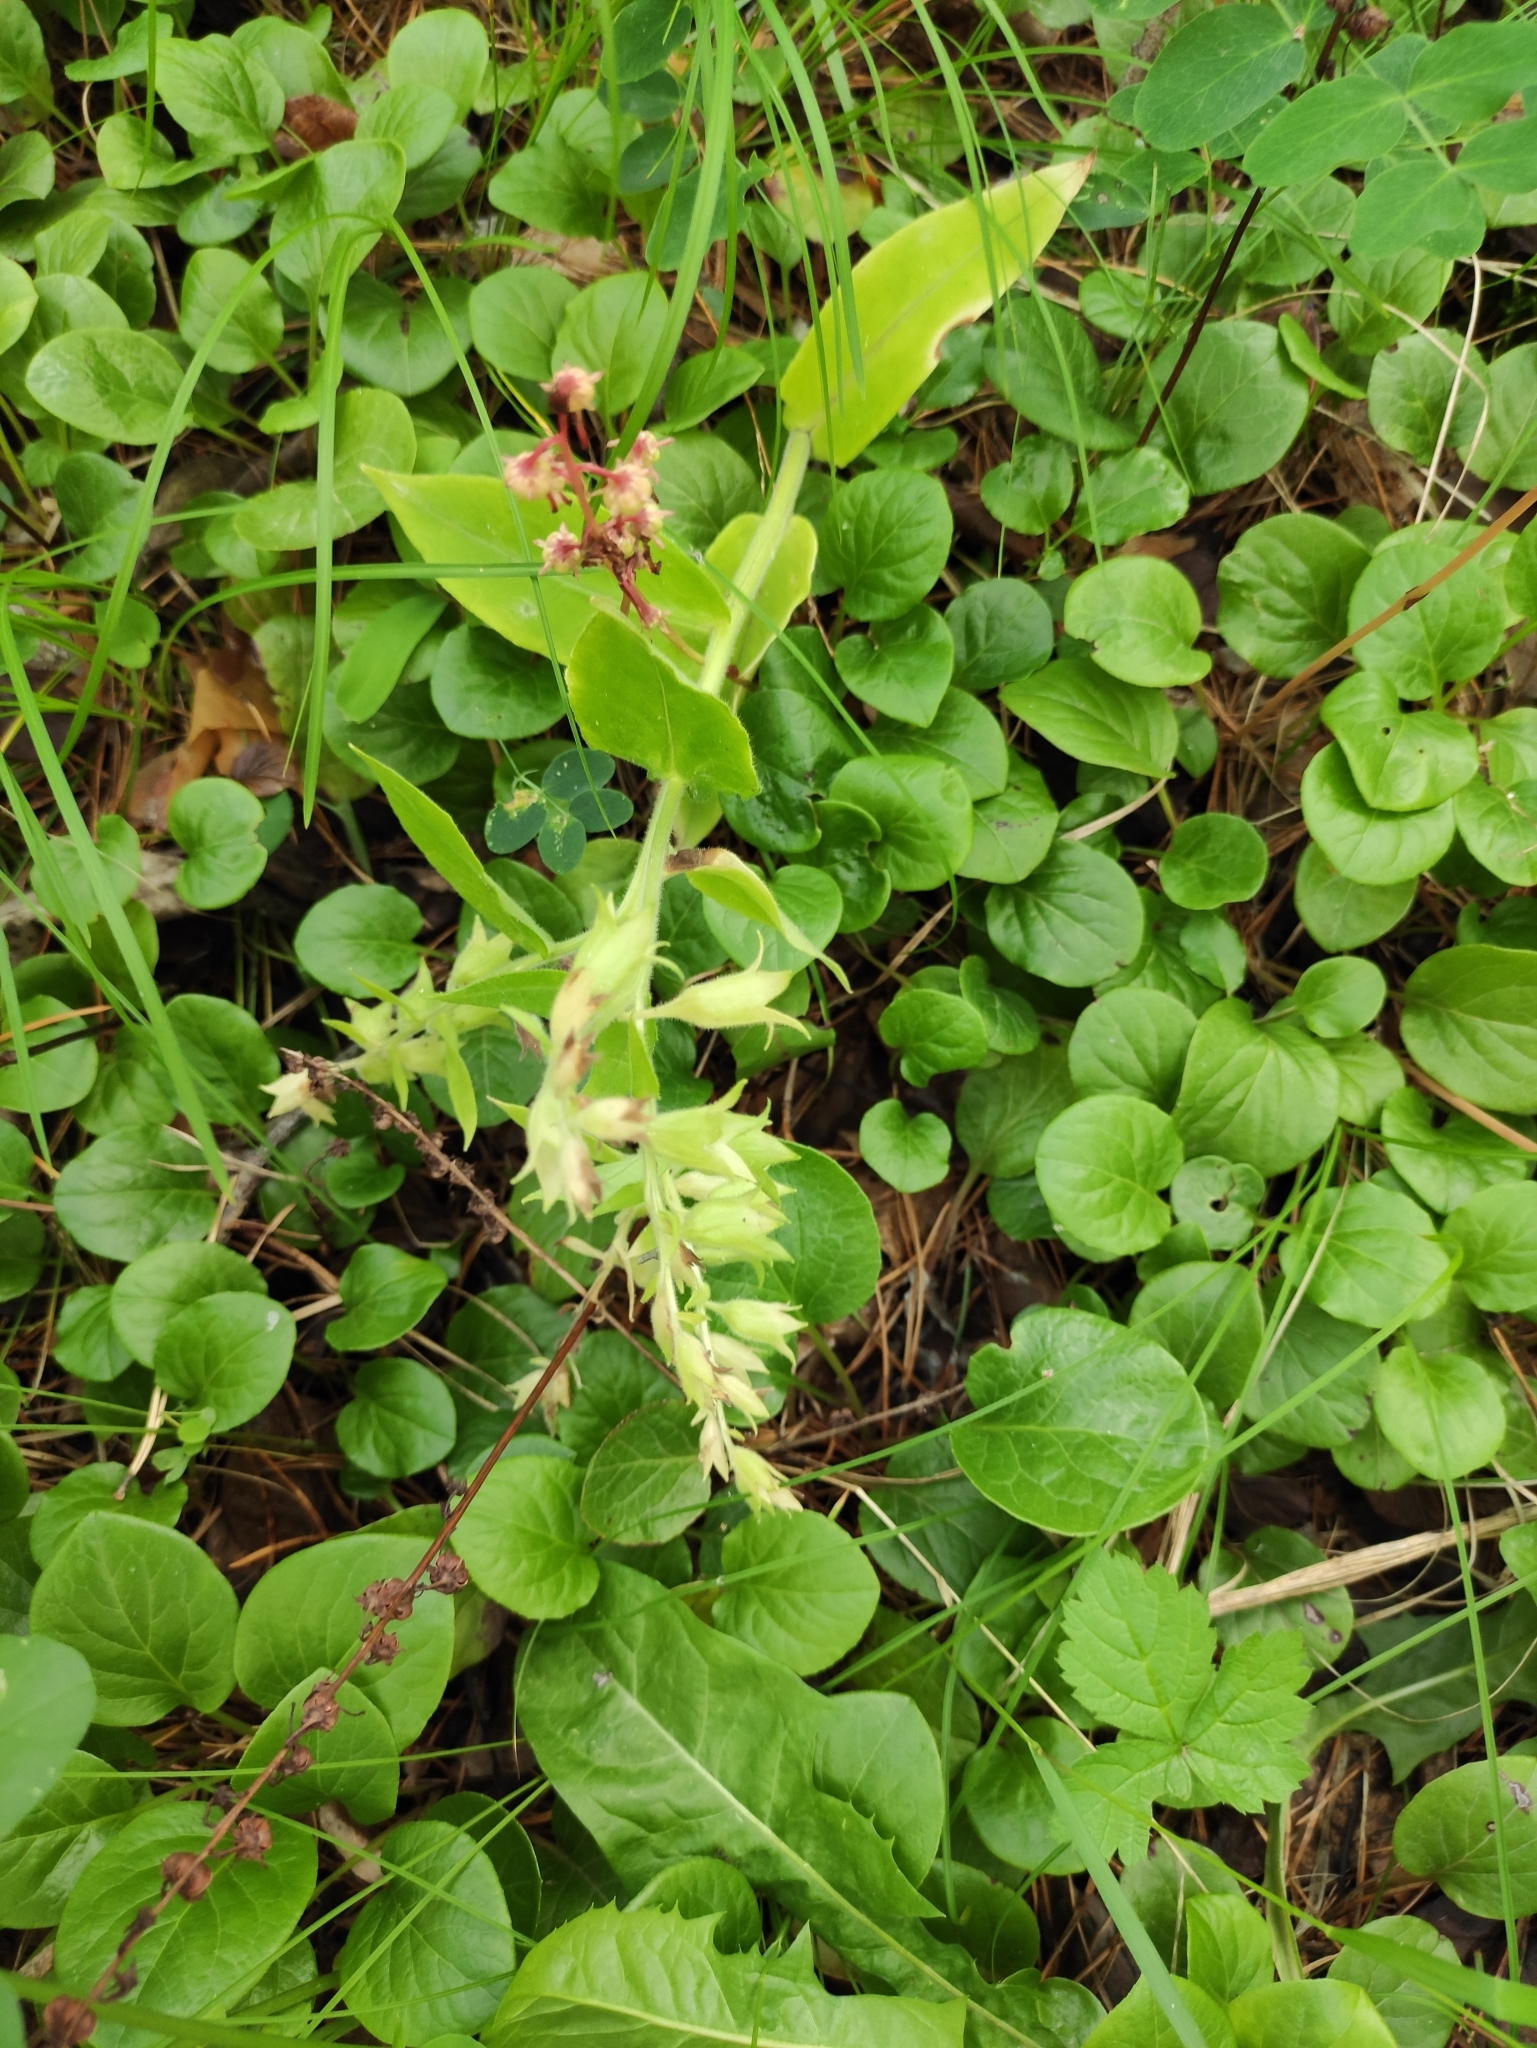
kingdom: Plantae
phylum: Tracheophyta
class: Magnoliopsida
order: Boraginales
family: Boraginaceae
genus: Pulmonaria
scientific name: Pulmonaria mollis
